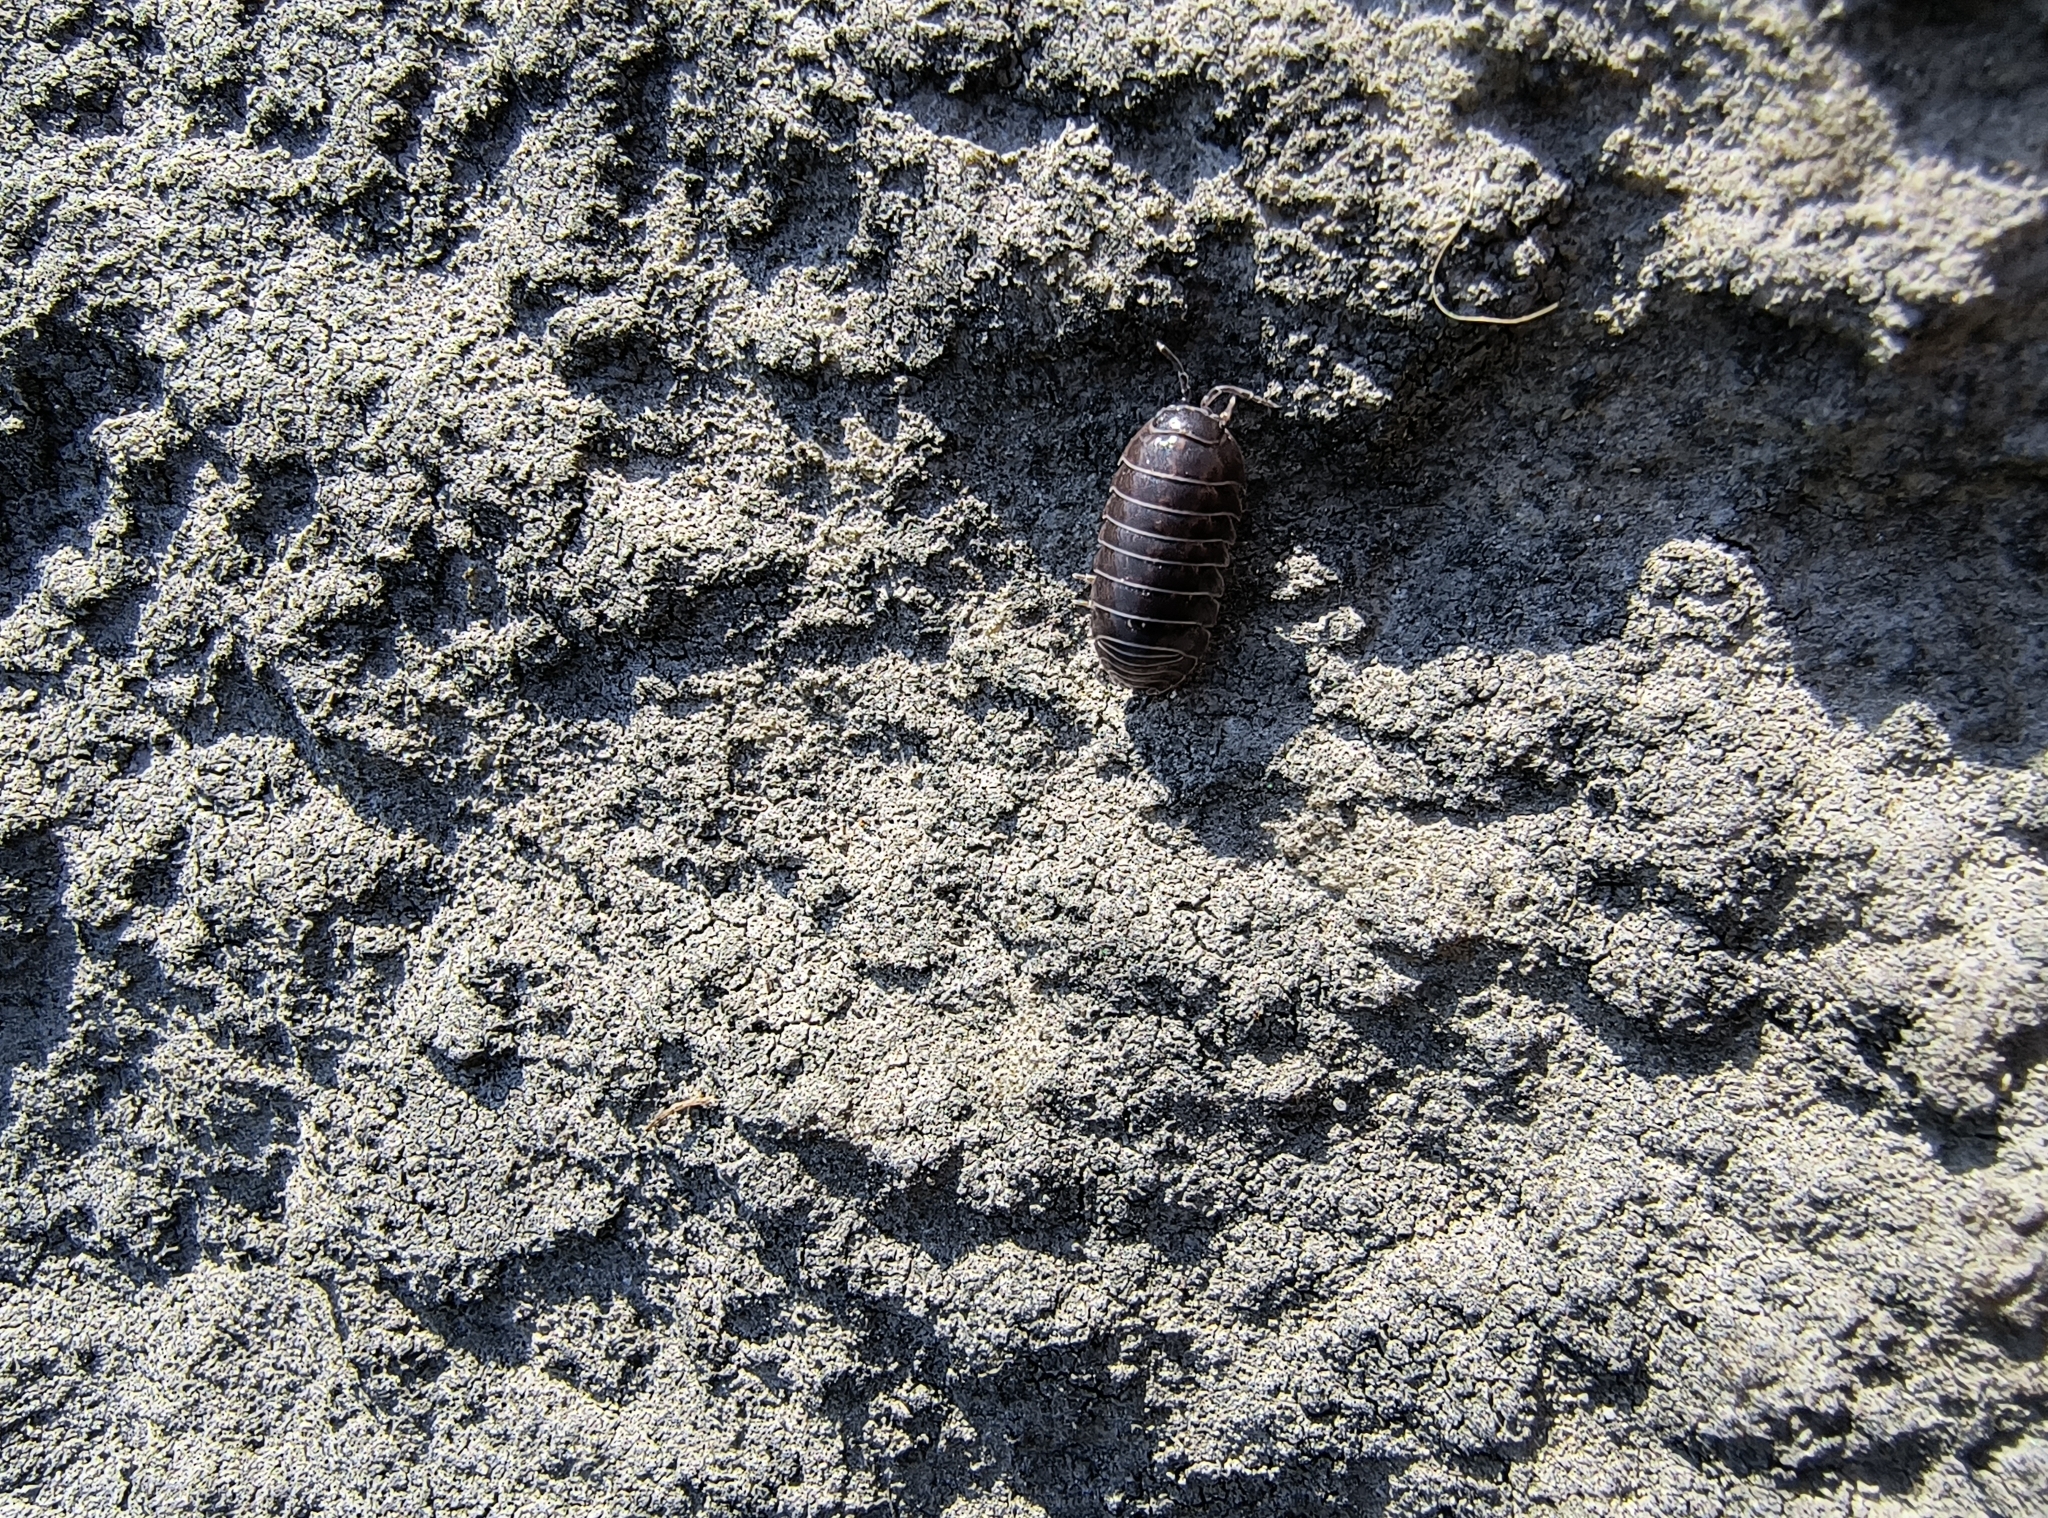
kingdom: Animalia
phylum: Arthropoda
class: Malacostraca
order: Isopoda
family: Armadillidiidae
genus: Armadillidium
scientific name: Armadillidium vulgare
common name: Common pill woodlouse
